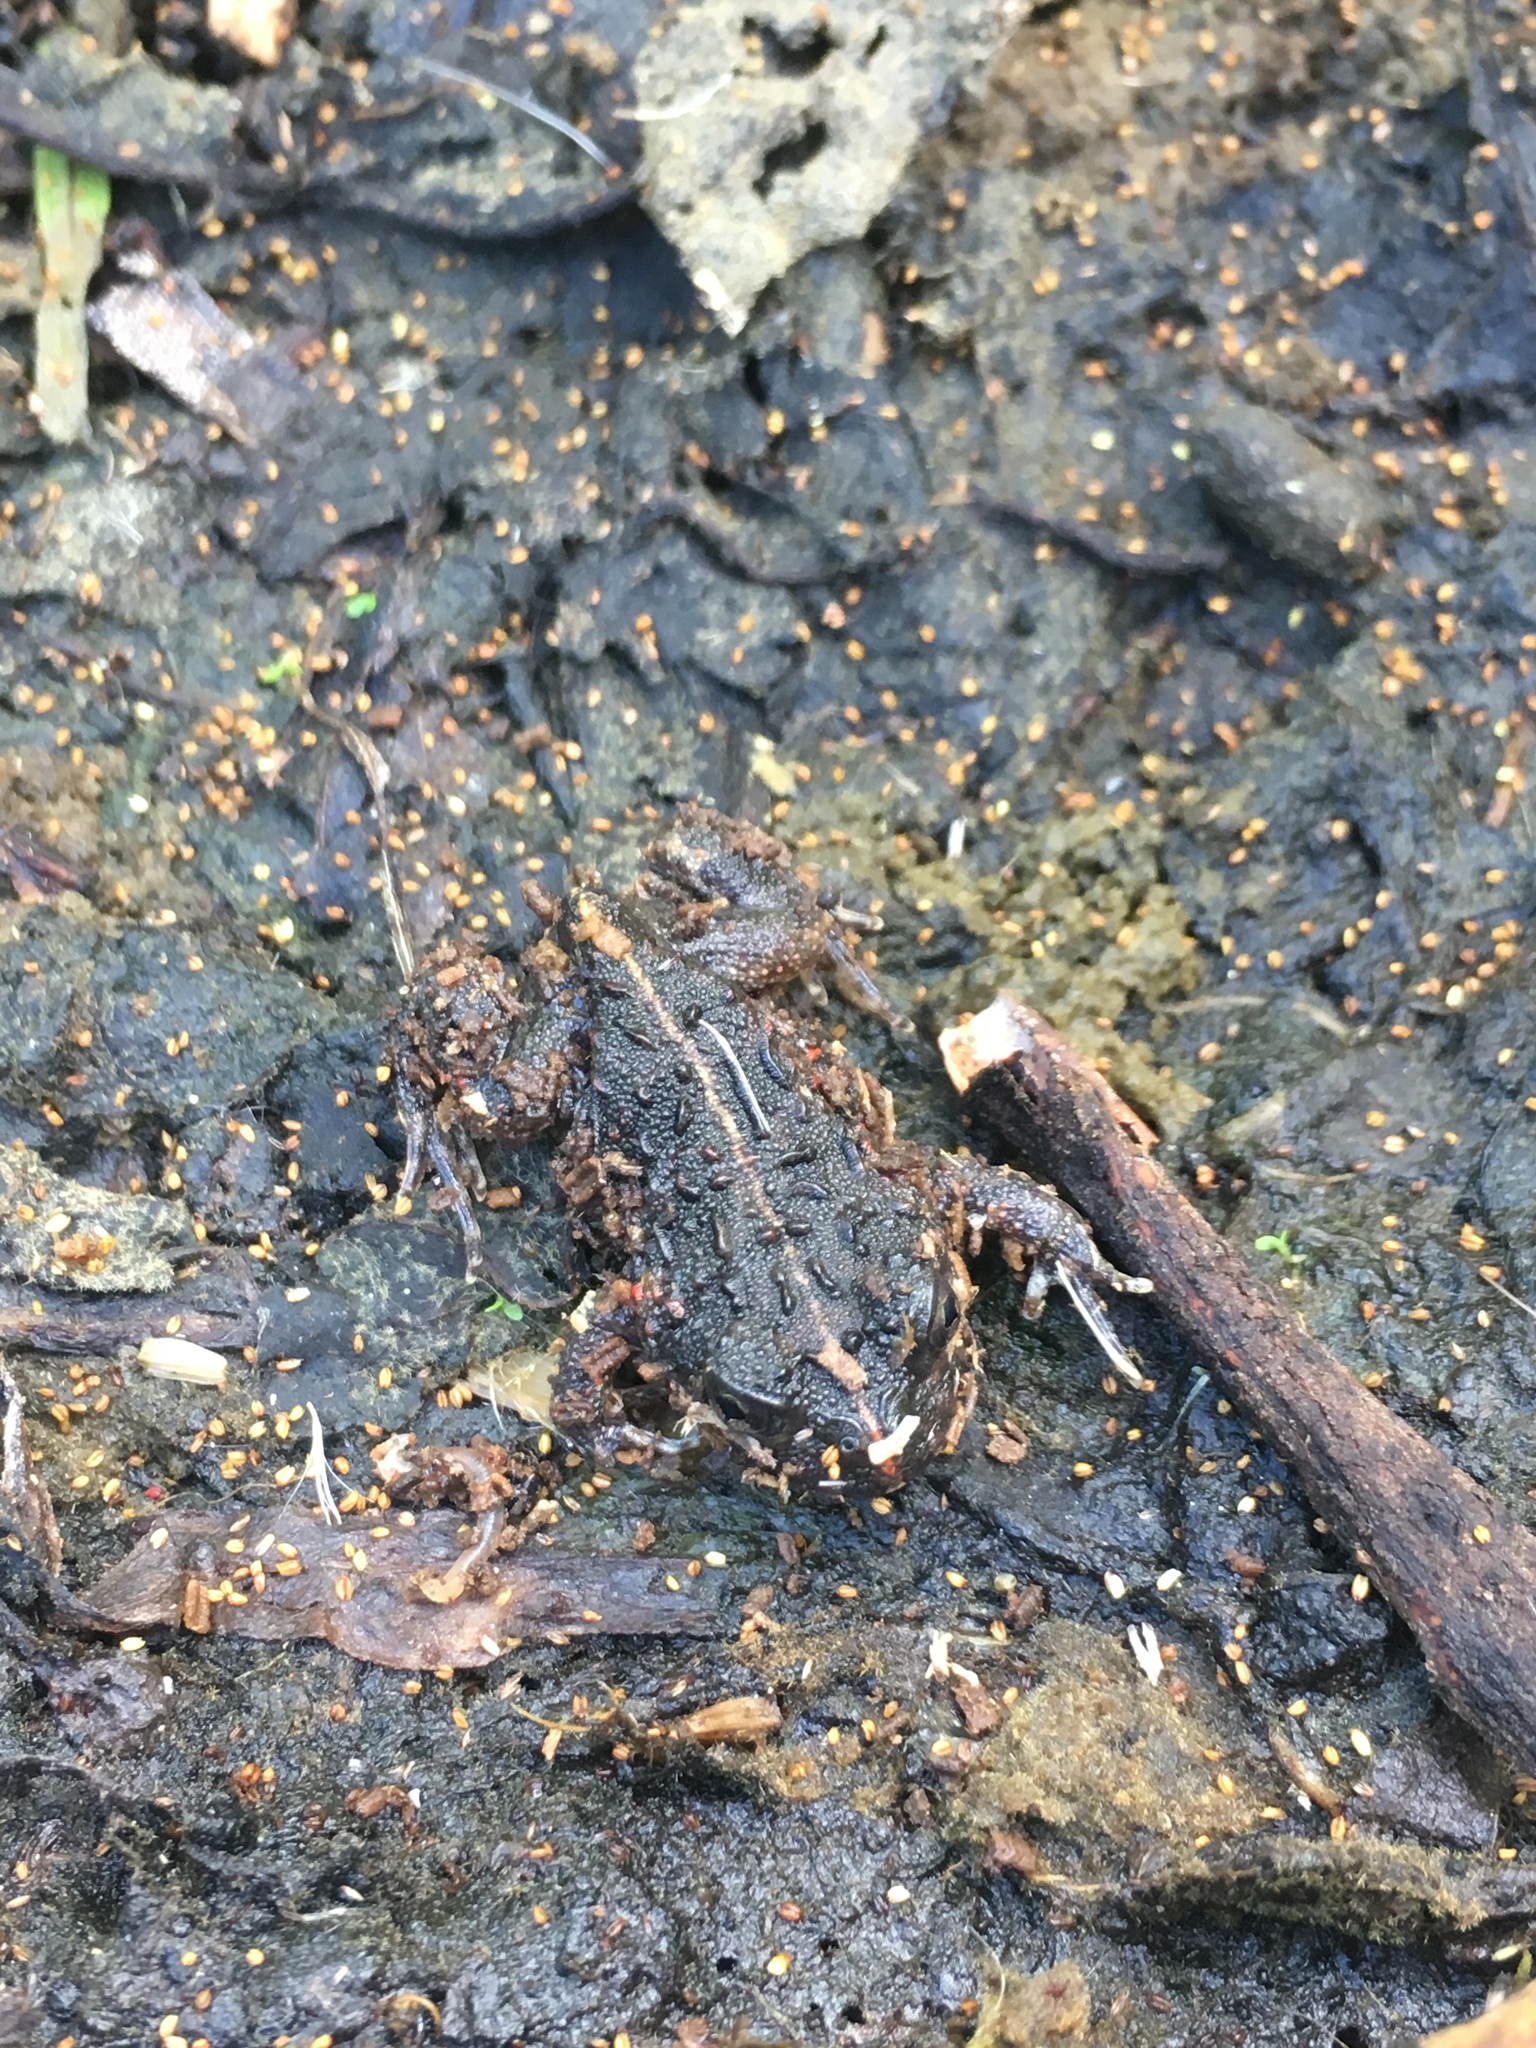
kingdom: Animalia
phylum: Chordata
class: Amphibia
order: Anura
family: Odontophrynidae
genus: Odontophrynus
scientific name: Odontophrynus
